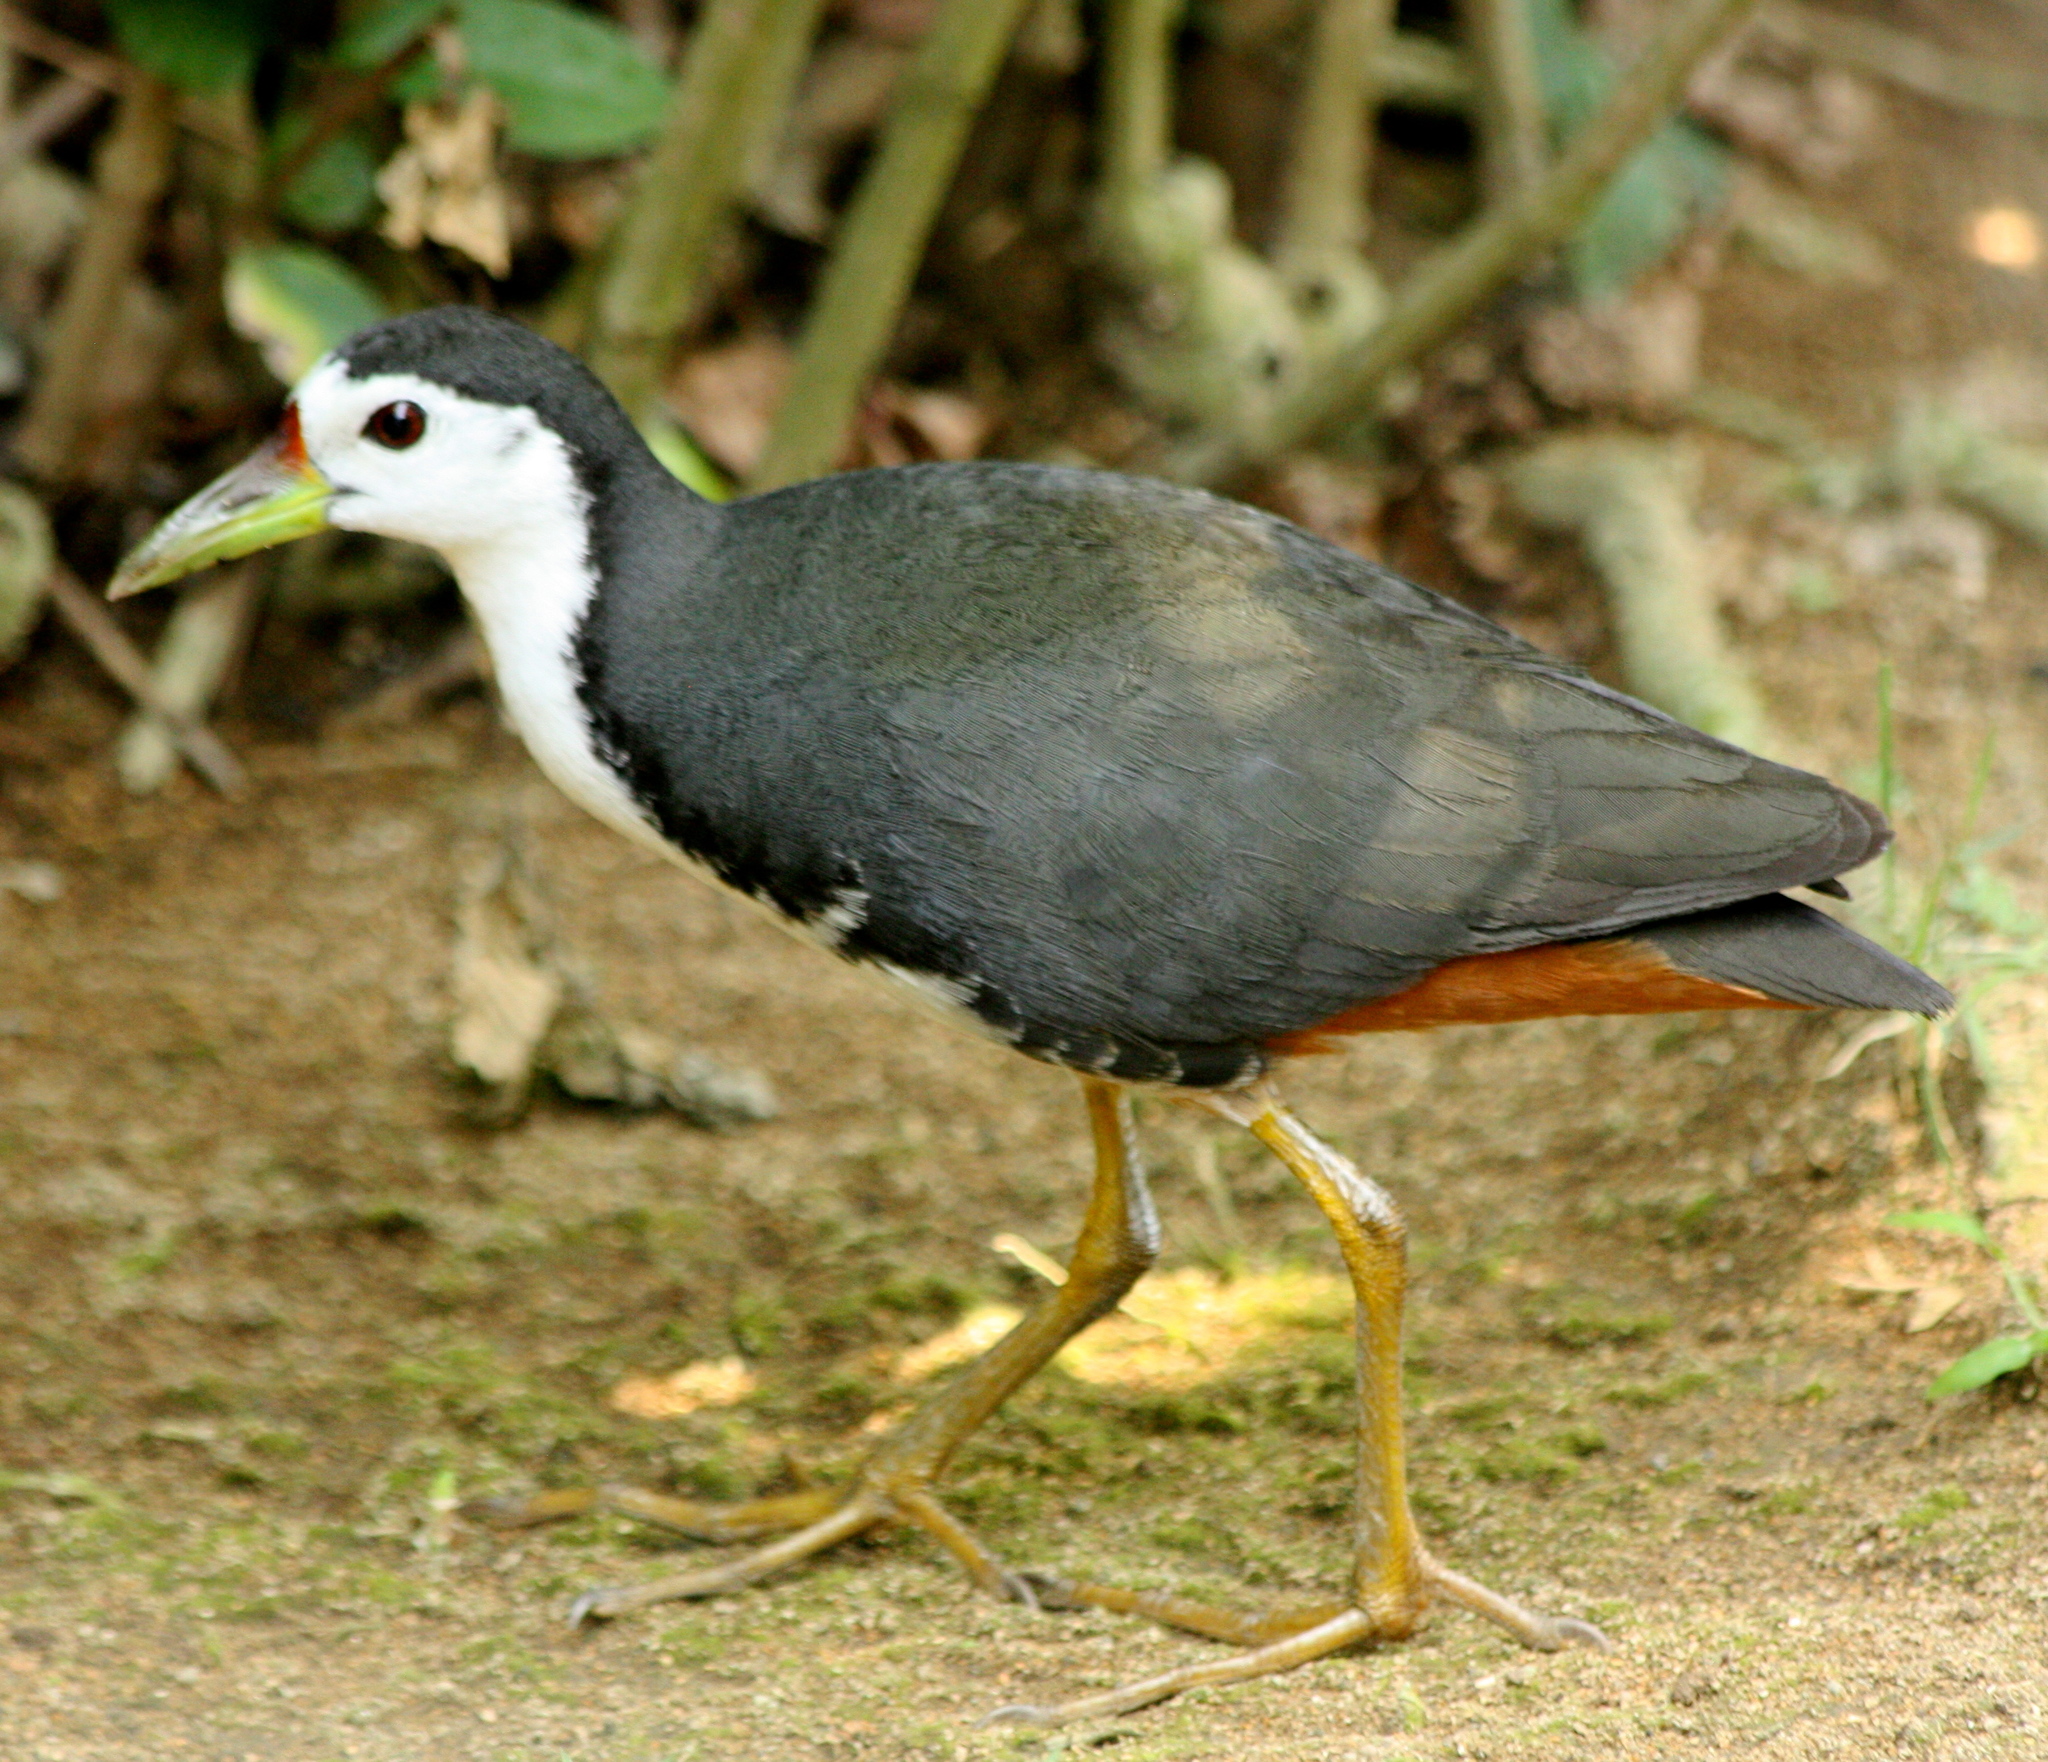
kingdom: Animalia
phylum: Chordata
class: Aves
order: Gruiformes
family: Rallidae
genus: Amaurornis
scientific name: Amaurornis phoenicurus
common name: White-breasted waterhen
